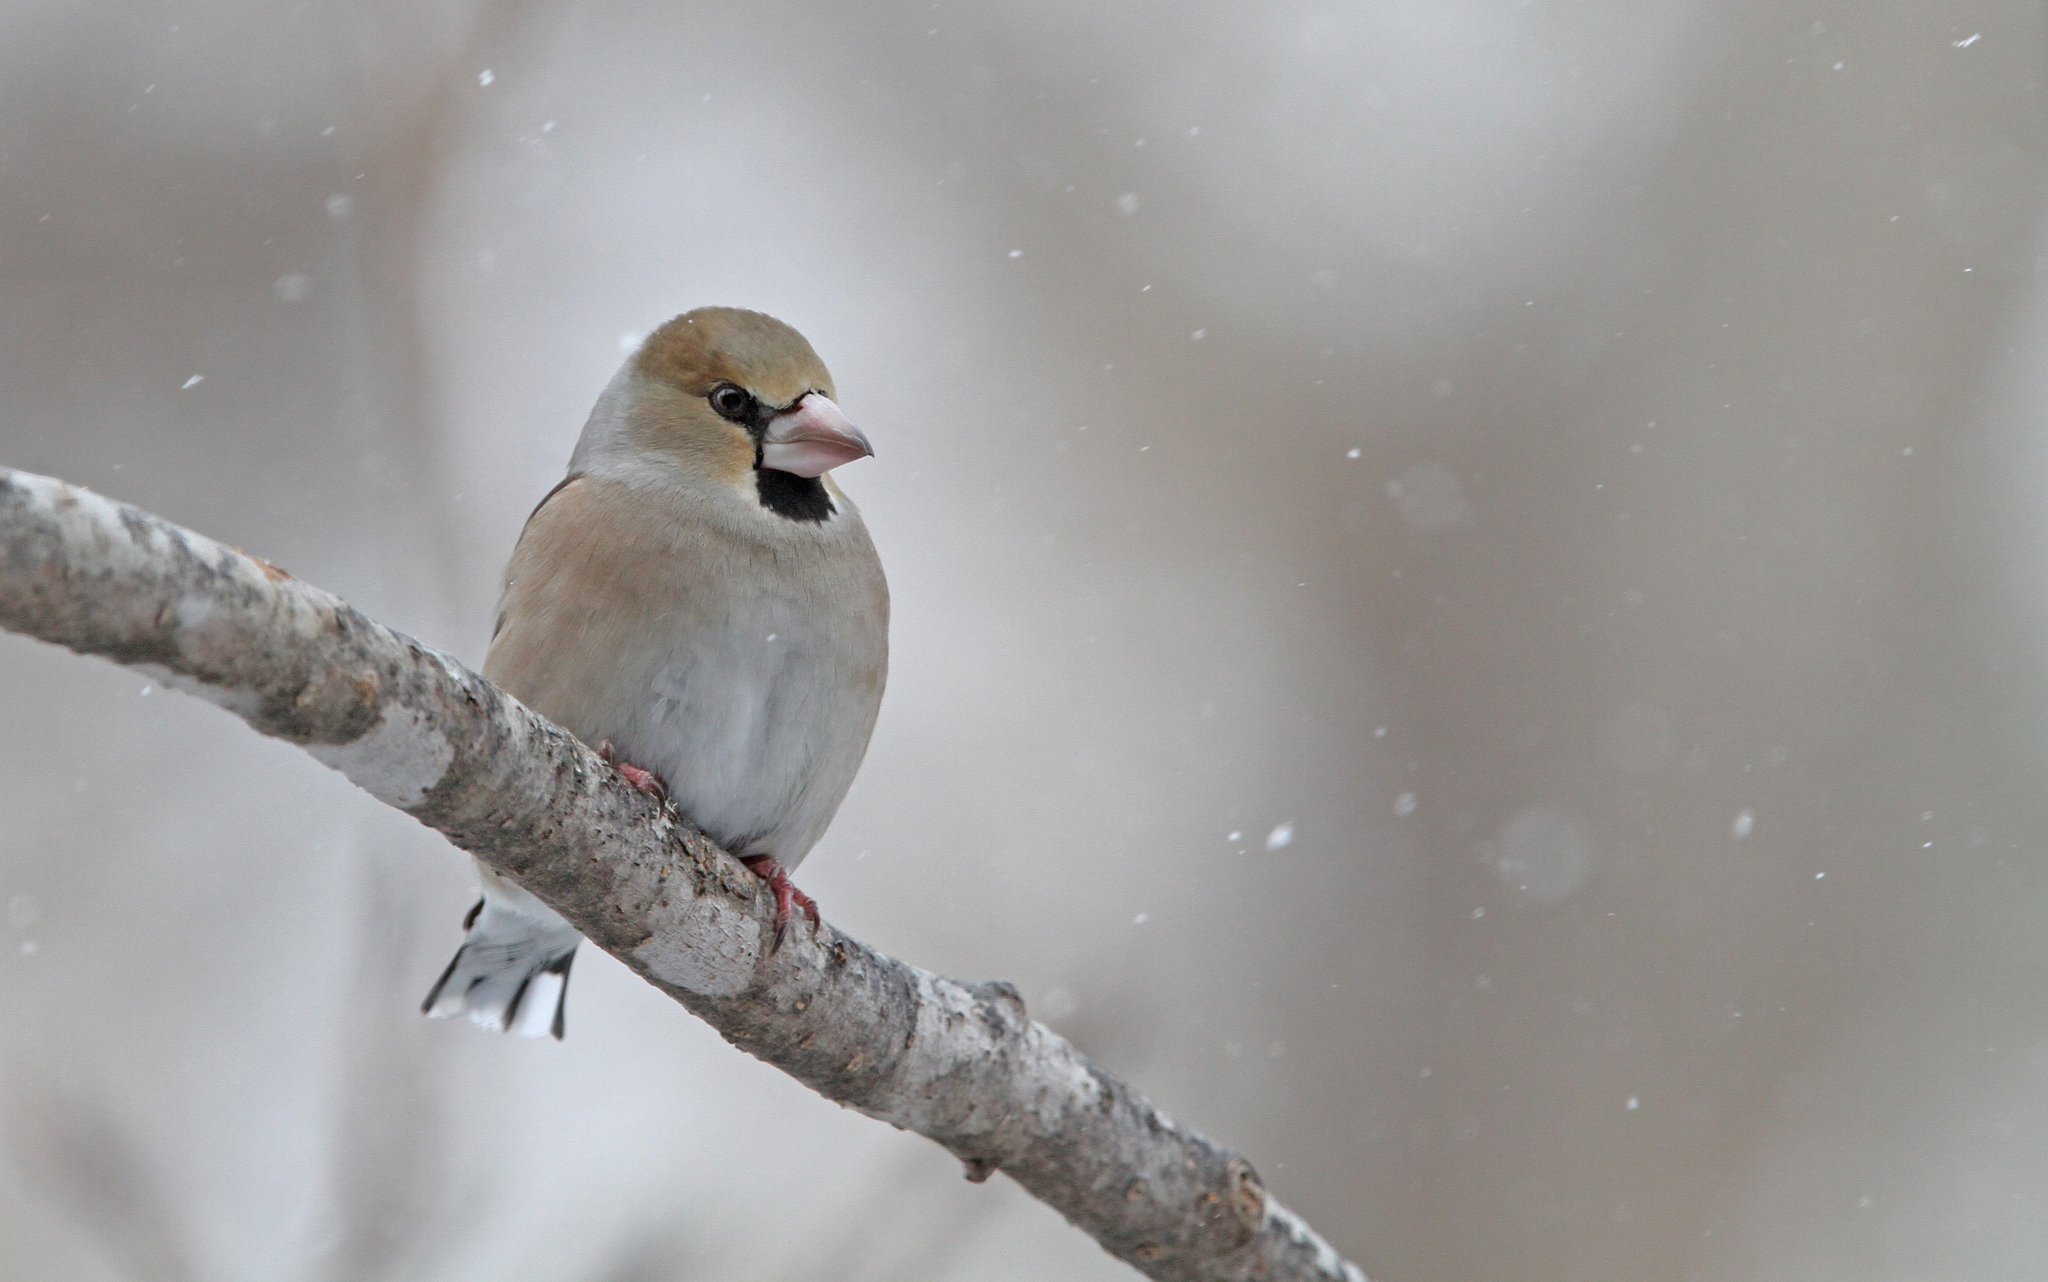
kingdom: Animalia
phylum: Chordata
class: Aves
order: Passeriformes
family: Fringillidae
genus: Coccothraustes
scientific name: Coccothraustes coccothraustes
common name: Hawfinch
